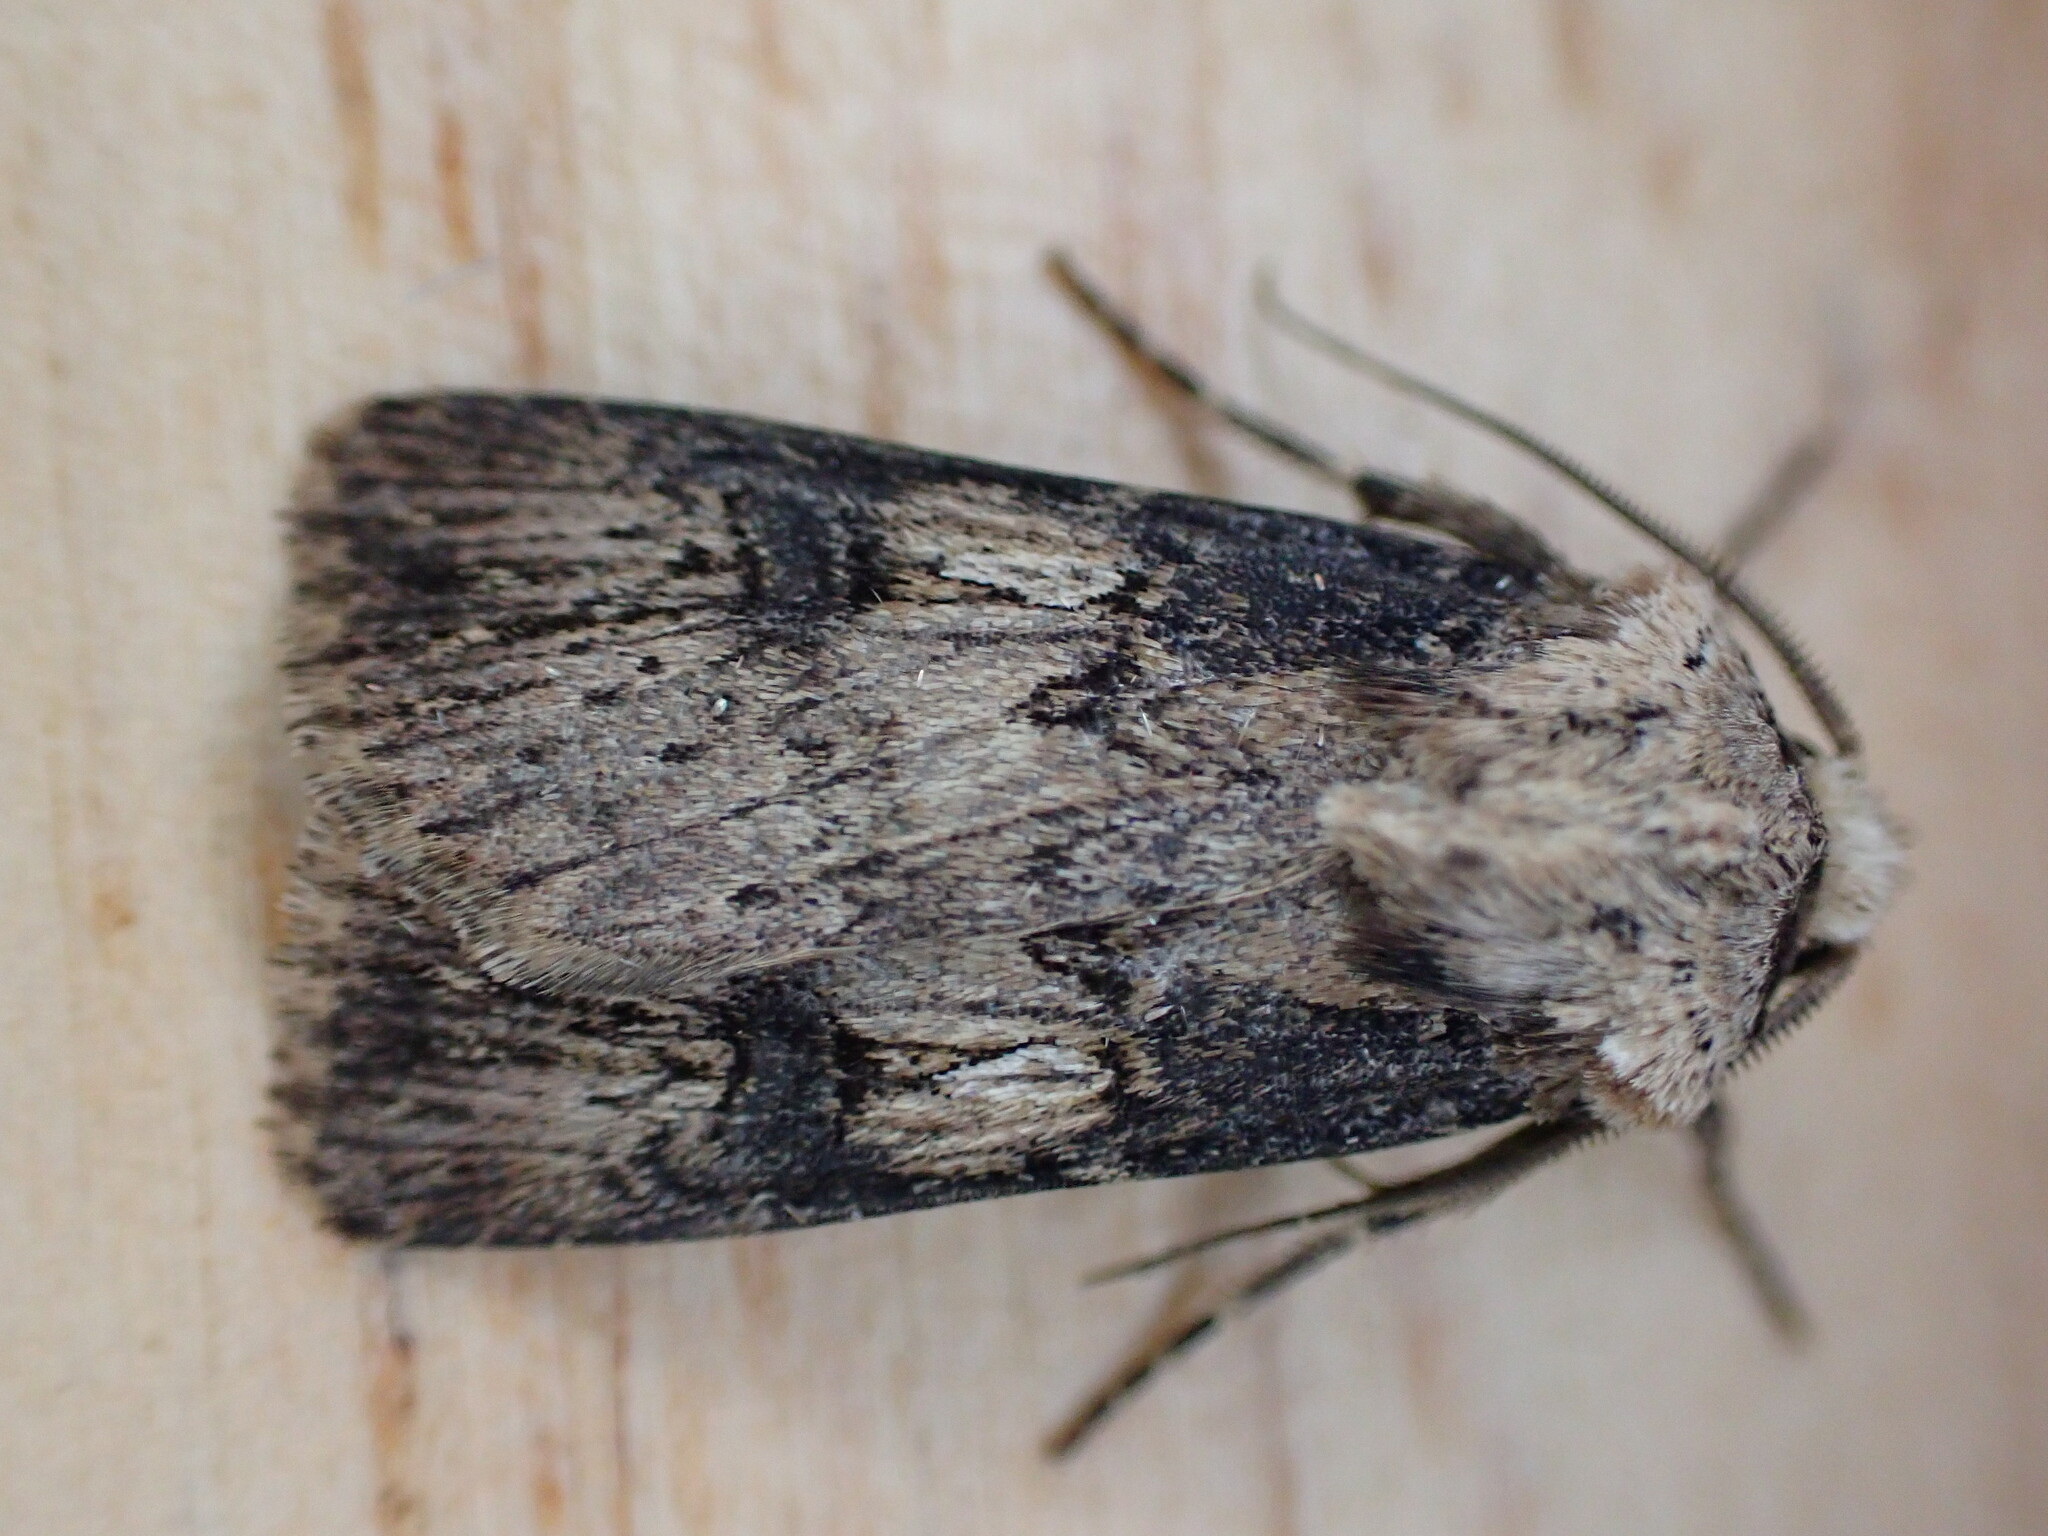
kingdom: Animalia
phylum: Arthropoda
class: Insecta
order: Lepidoptera
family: Noctuidae
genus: Agrotis
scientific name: Agrotis puta
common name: Shuttle-shaped dart
